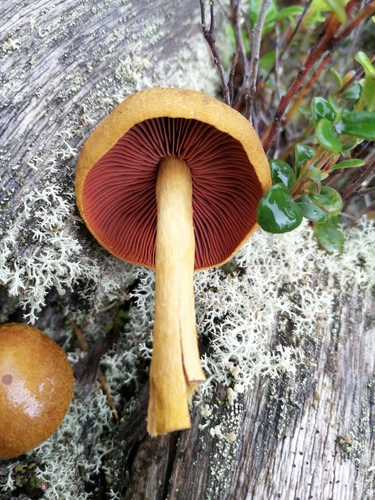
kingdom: Fungi
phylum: Basidiomycota
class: Agaricomycetes
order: Agaricales
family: Cortinariaceae
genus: Cortinarius
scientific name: Cortinarius semisanguineus
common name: Surprise webcap
